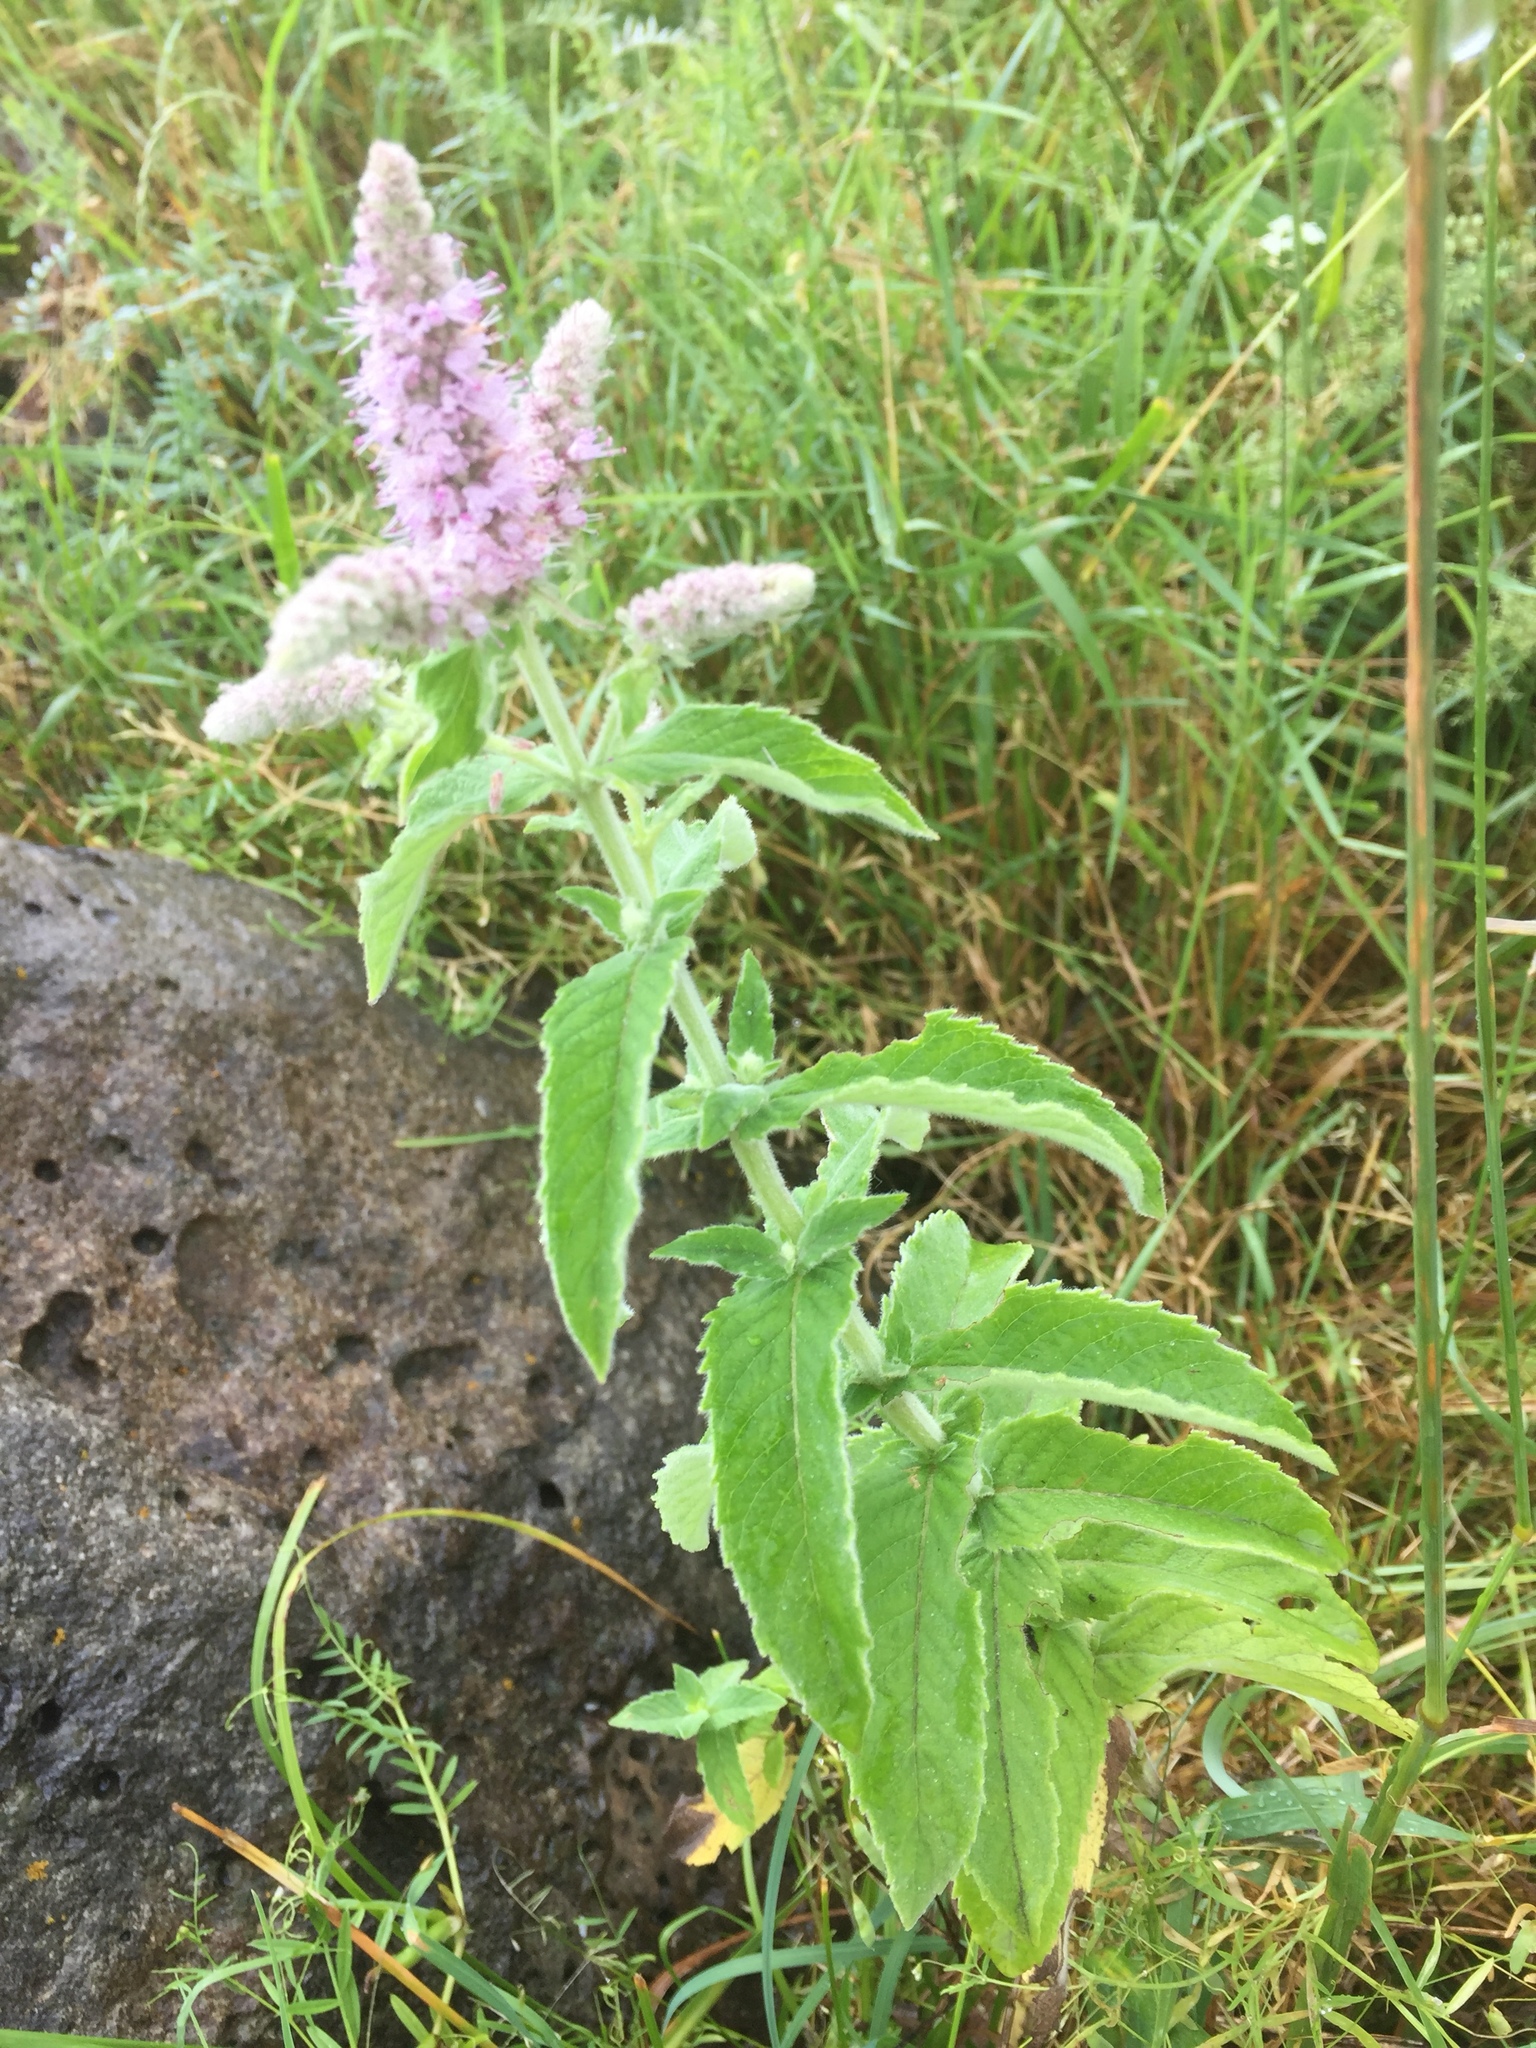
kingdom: Plantae
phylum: Tracheophyta
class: Magnoliopsida
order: Lamiales
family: Lamiaceae
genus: Mentha
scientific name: Mentha longifolia
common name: Horse mint
